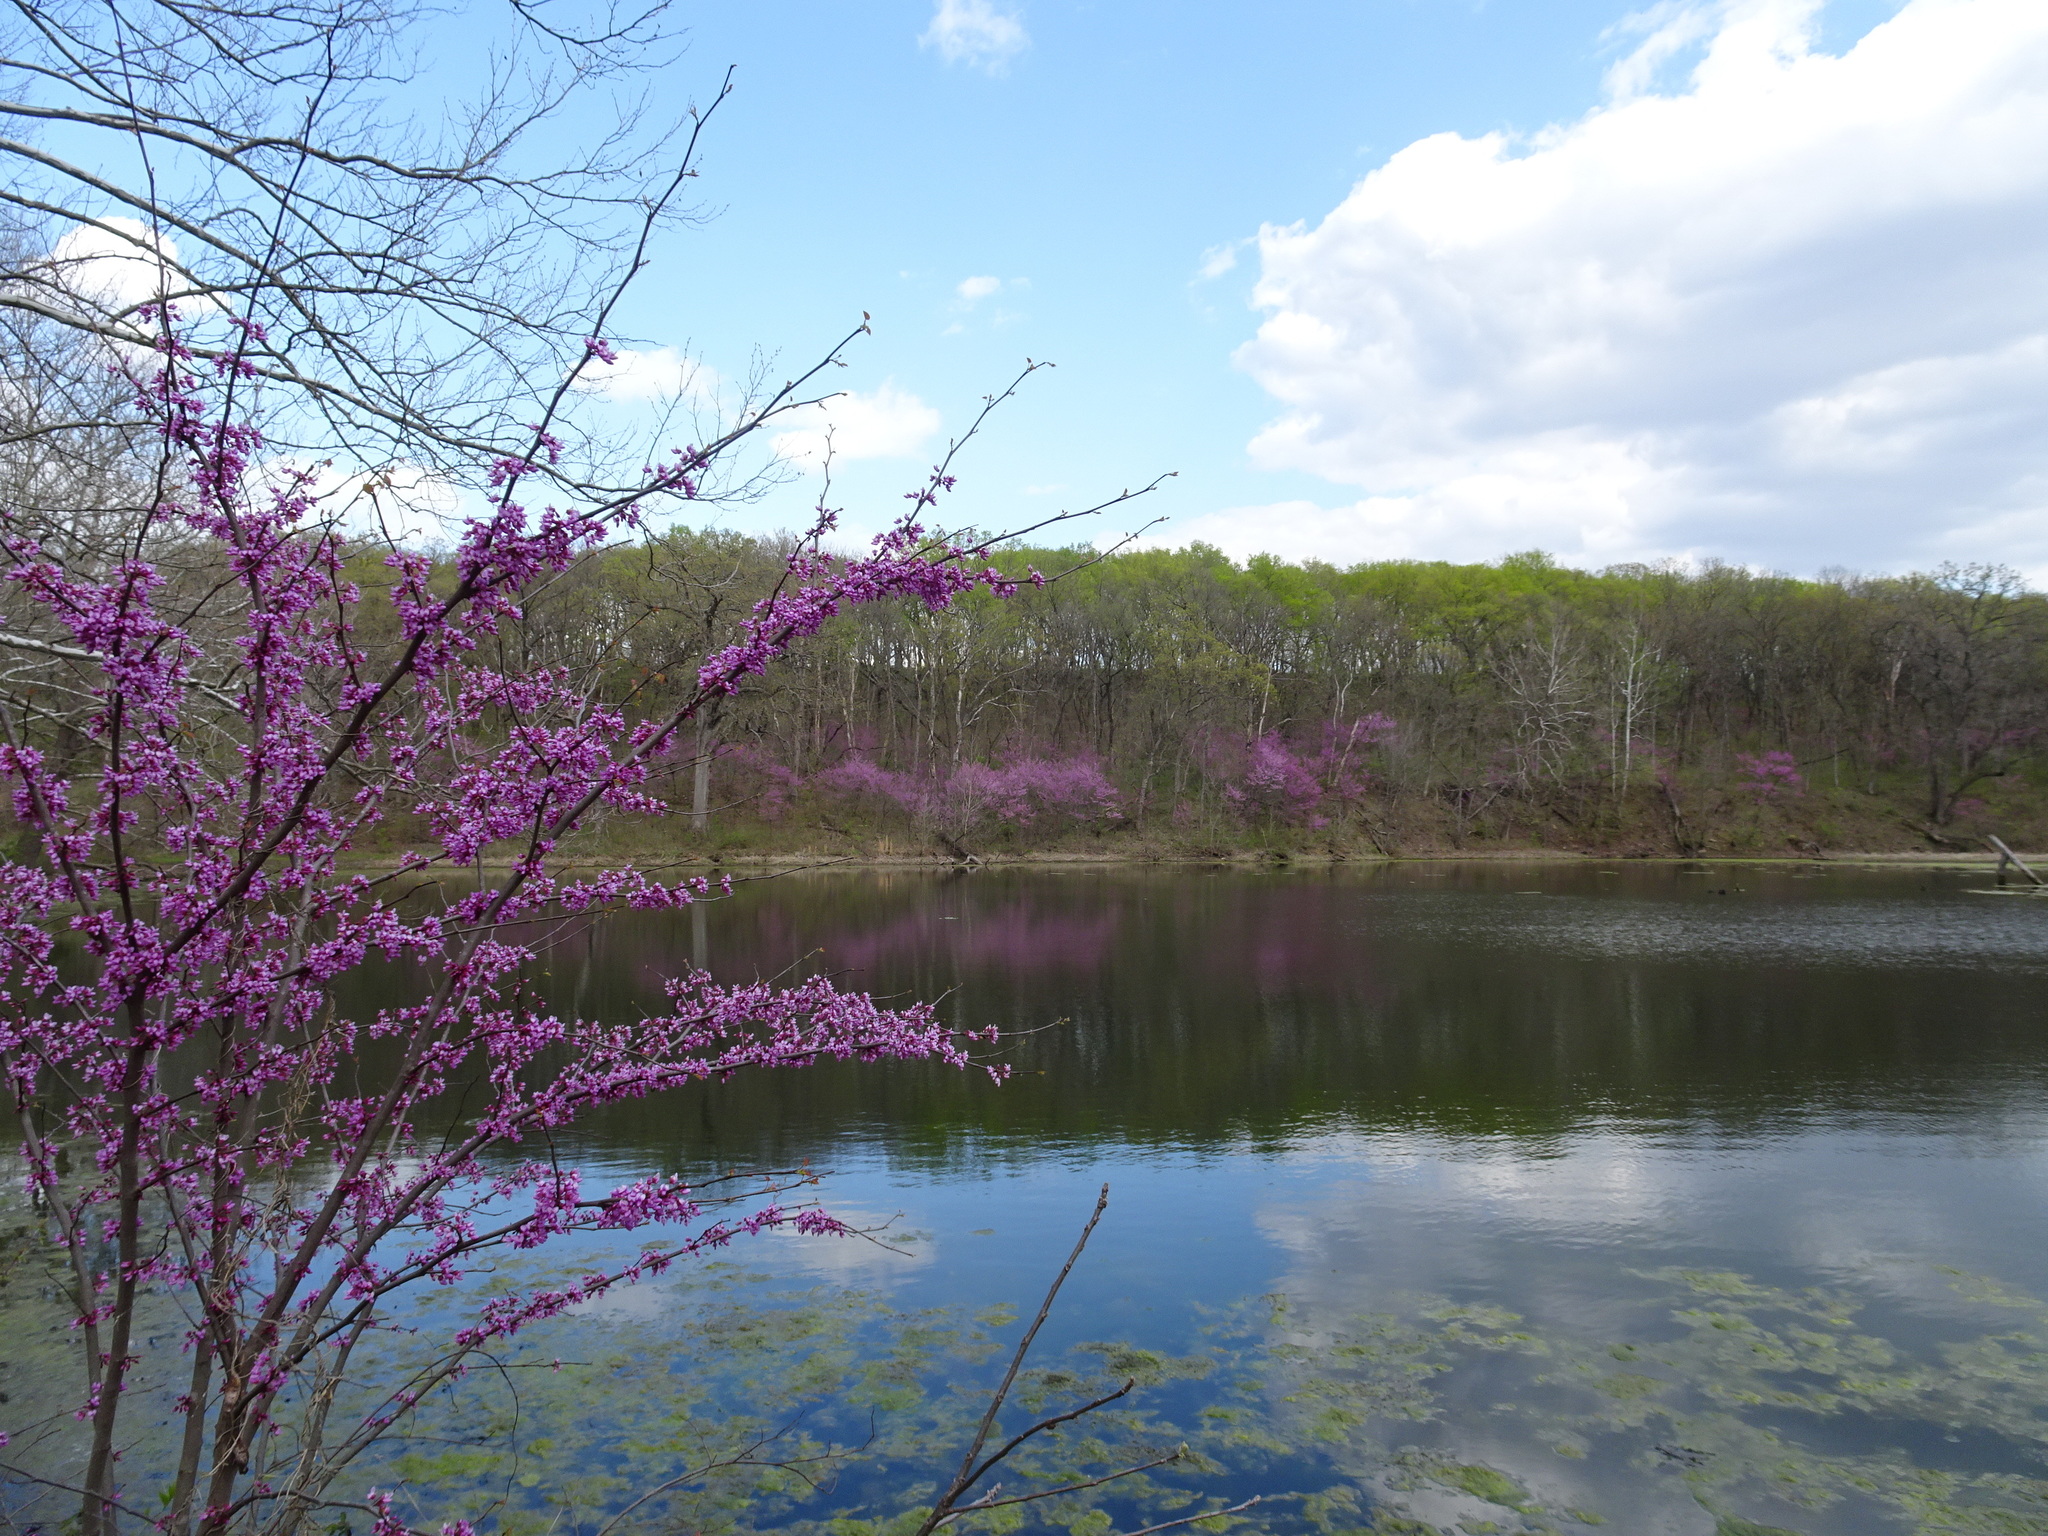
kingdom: Plantae
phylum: Tracheophyta
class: Magnoliopsida
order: Fabales
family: Fabaceae
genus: Cercis
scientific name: Cercis canadensis
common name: Eastern redbud
